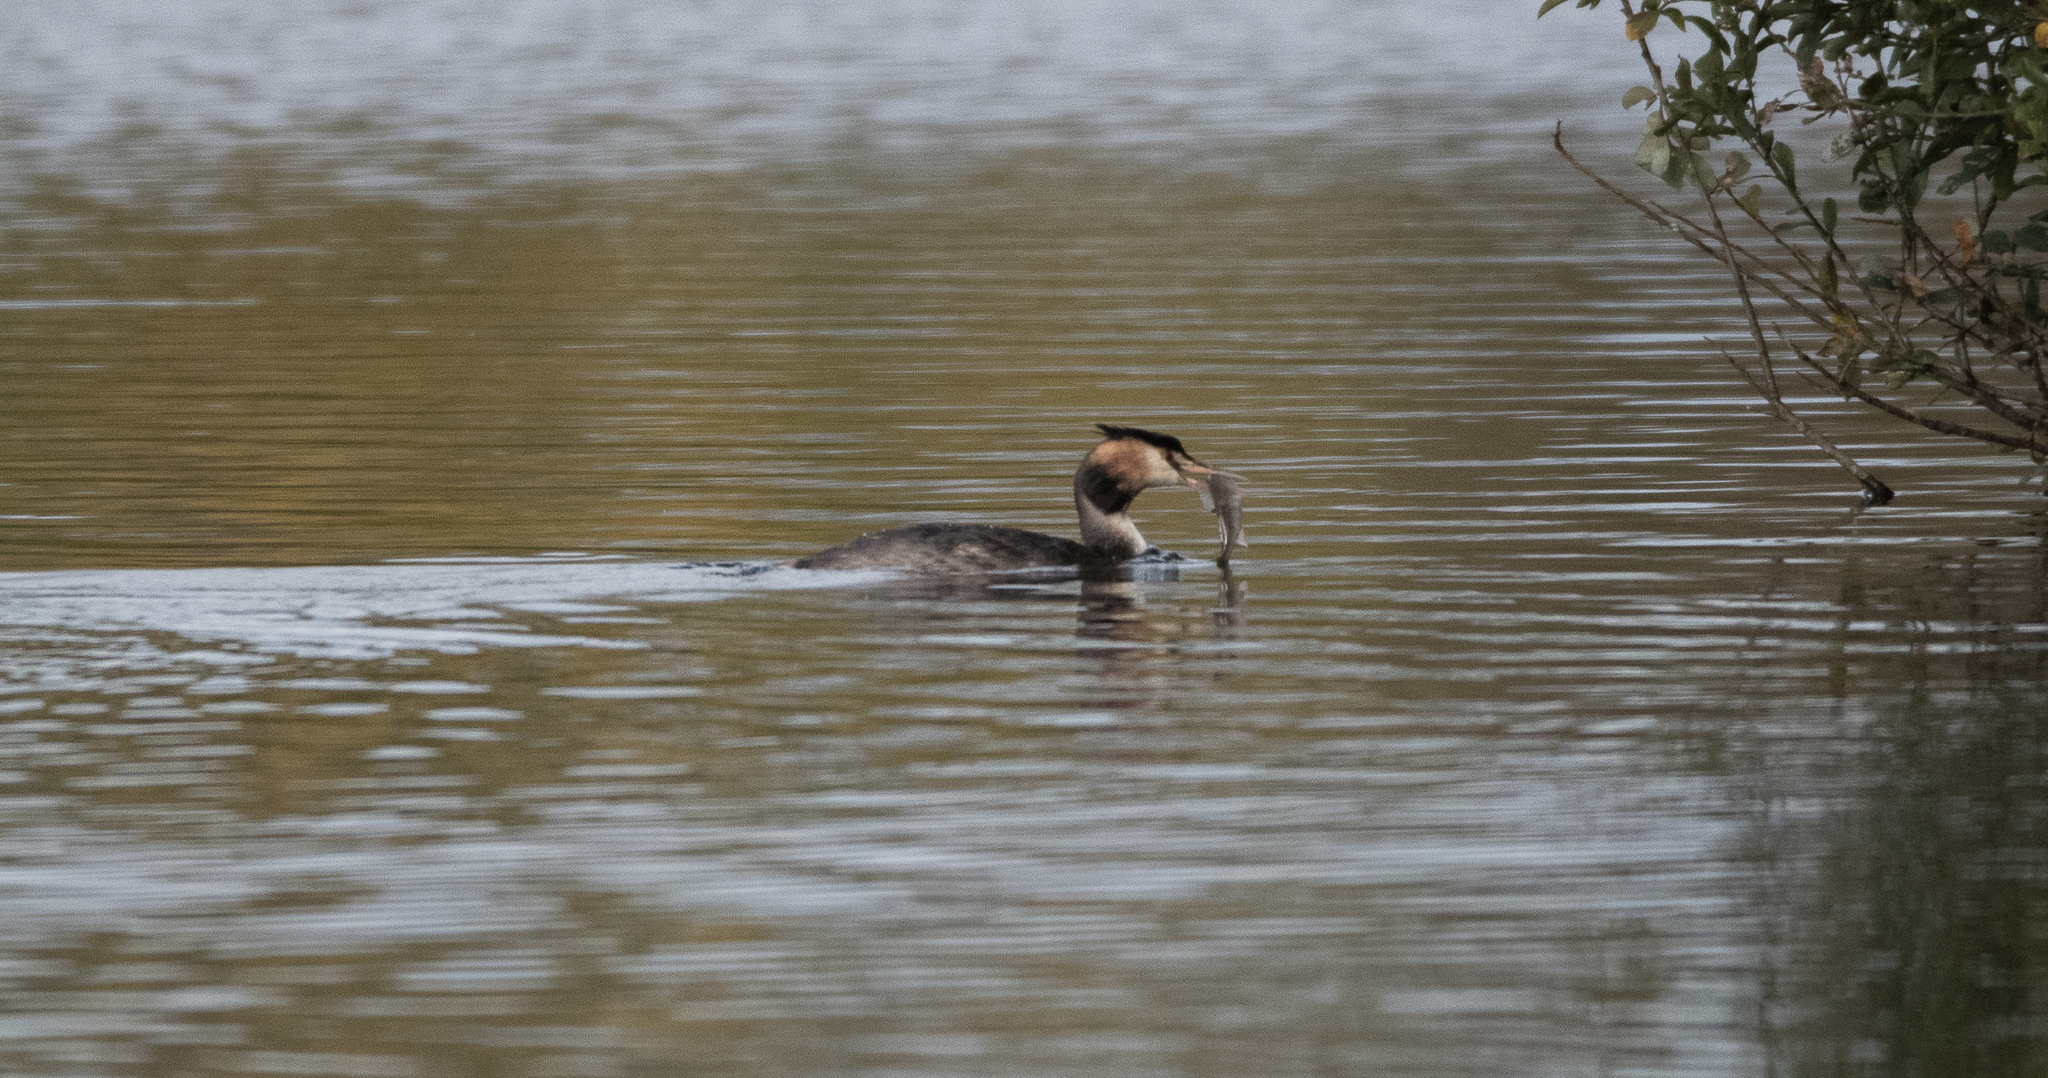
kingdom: Animalia
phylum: Chordata
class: Aves
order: Podicipediformes
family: Podicipedidae
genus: Podiceps
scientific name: Podiceps cristatus
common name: Great crested grebe
